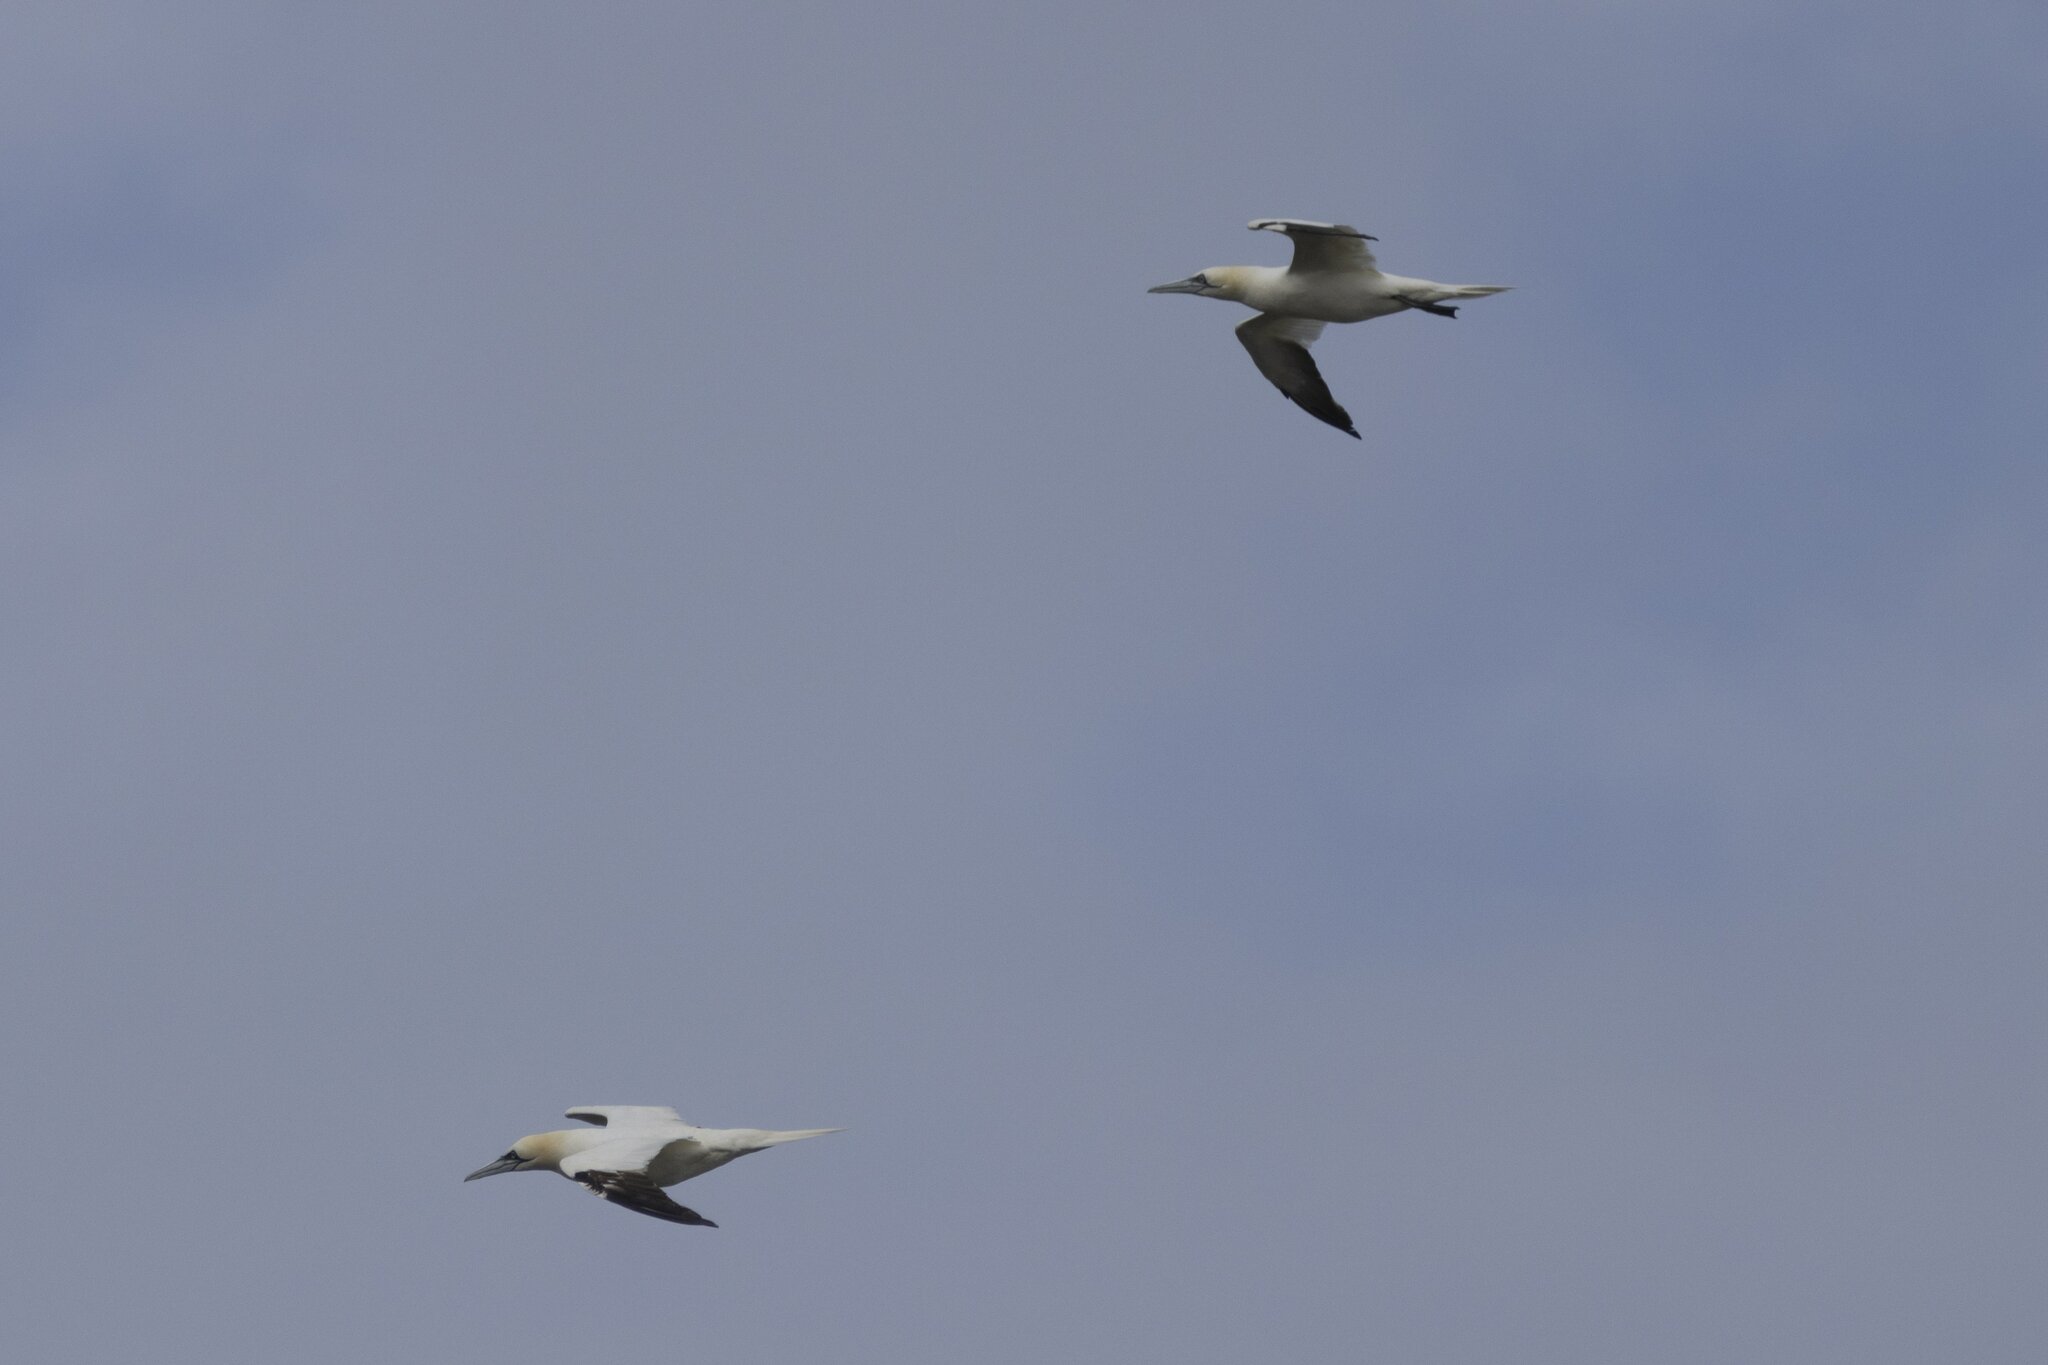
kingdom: Animalia
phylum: Chordata
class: Aves
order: Suliformes
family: Sulidae
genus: Morus
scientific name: Morus bassanus
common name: Northern gannet
